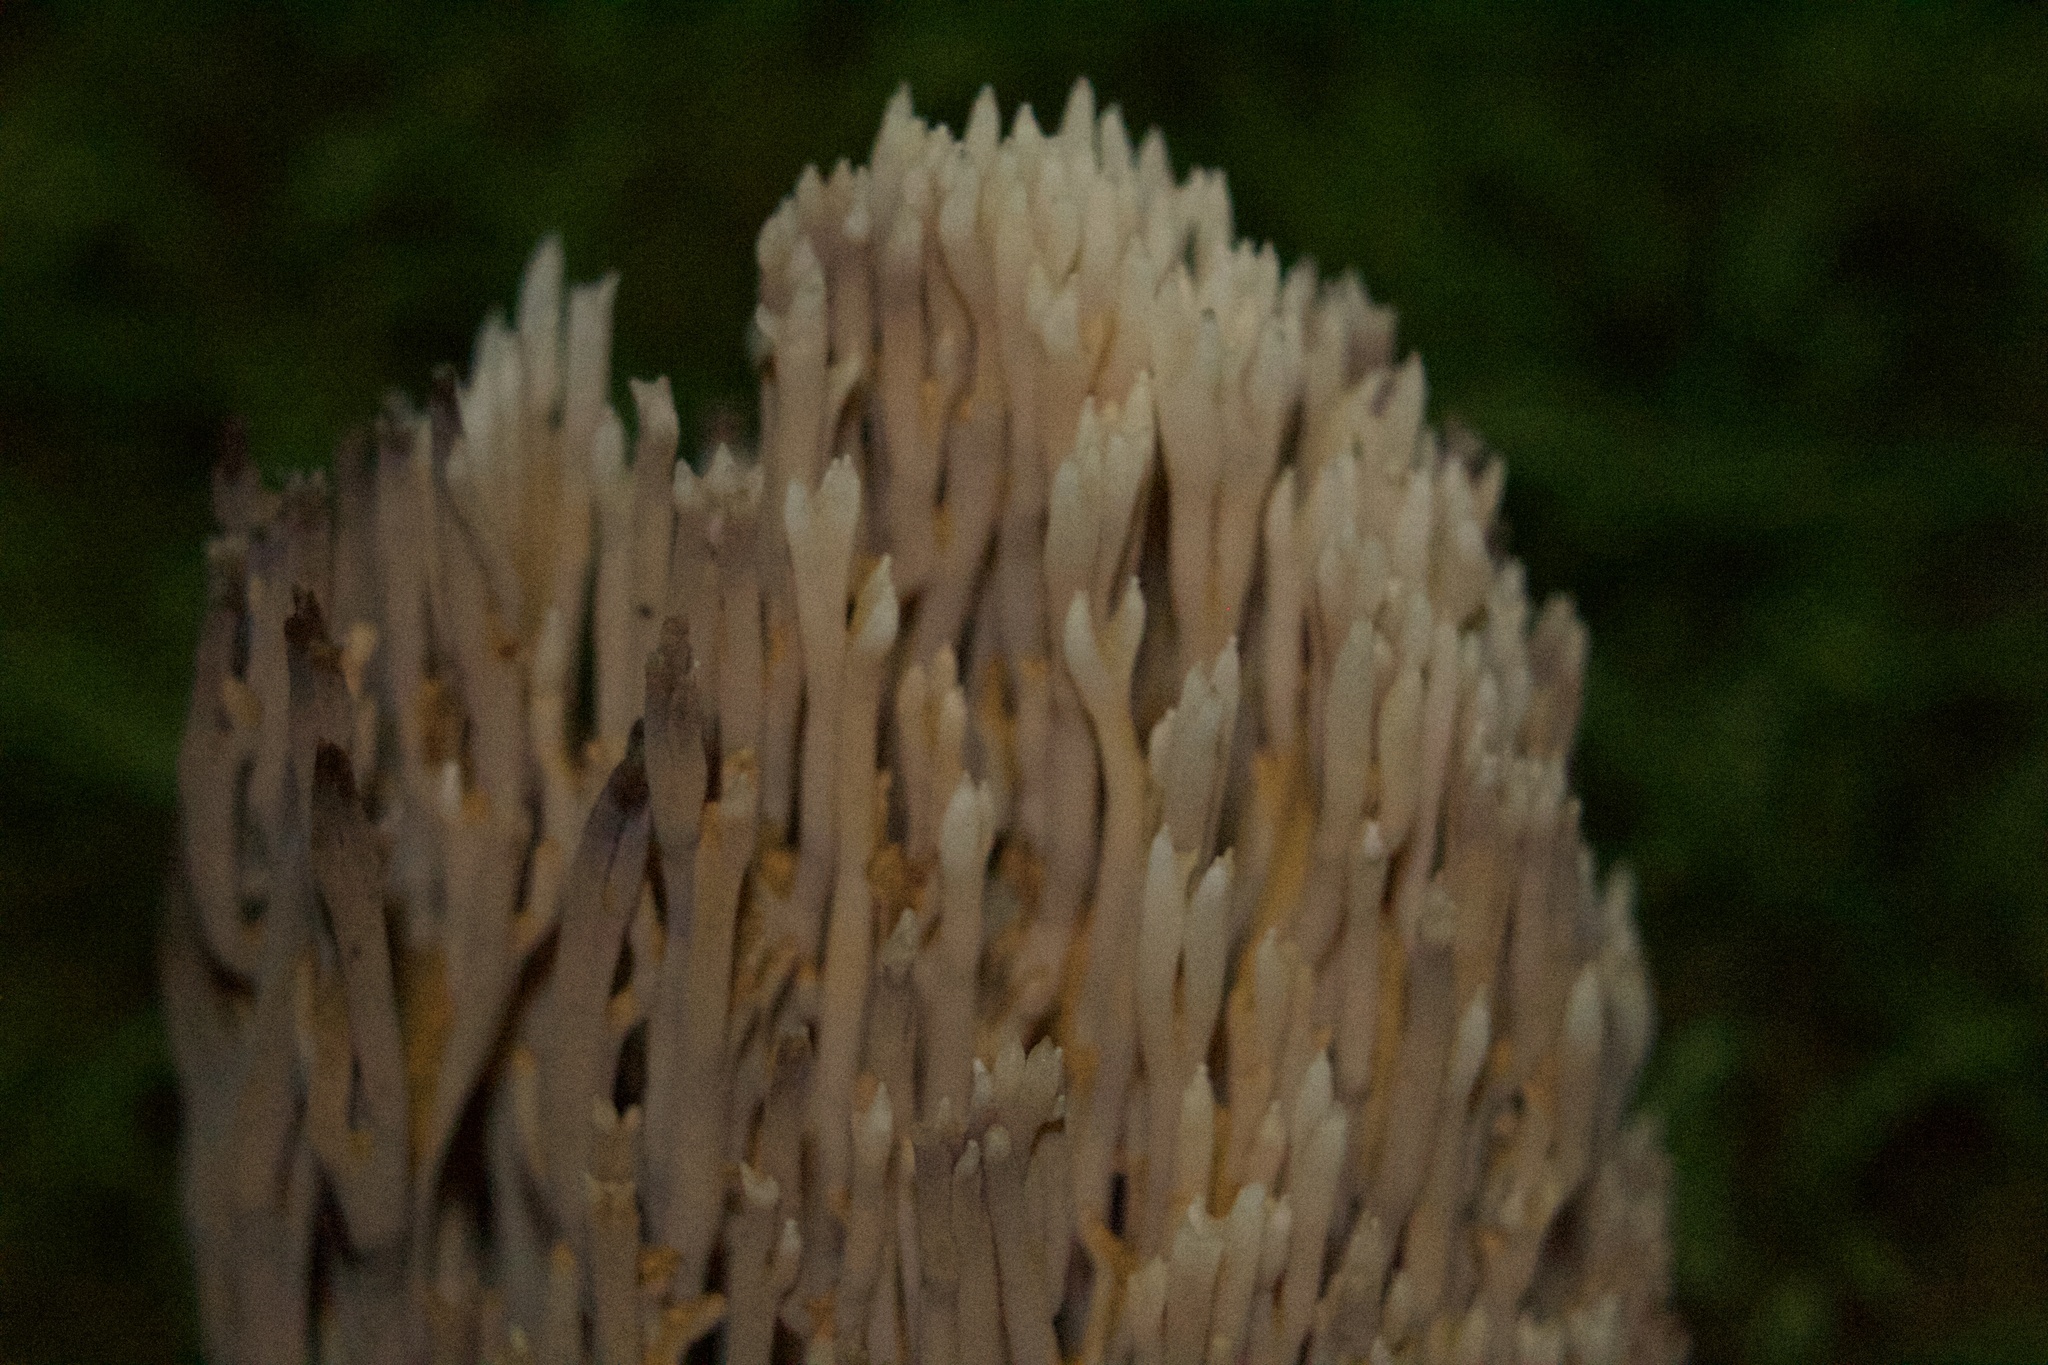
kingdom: Fungi
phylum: Basidiomycota
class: Agaricomycetes
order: Gomphales
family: Gomphaceae
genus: Ramaria
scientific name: Ramaria stricta
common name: Upright coral
